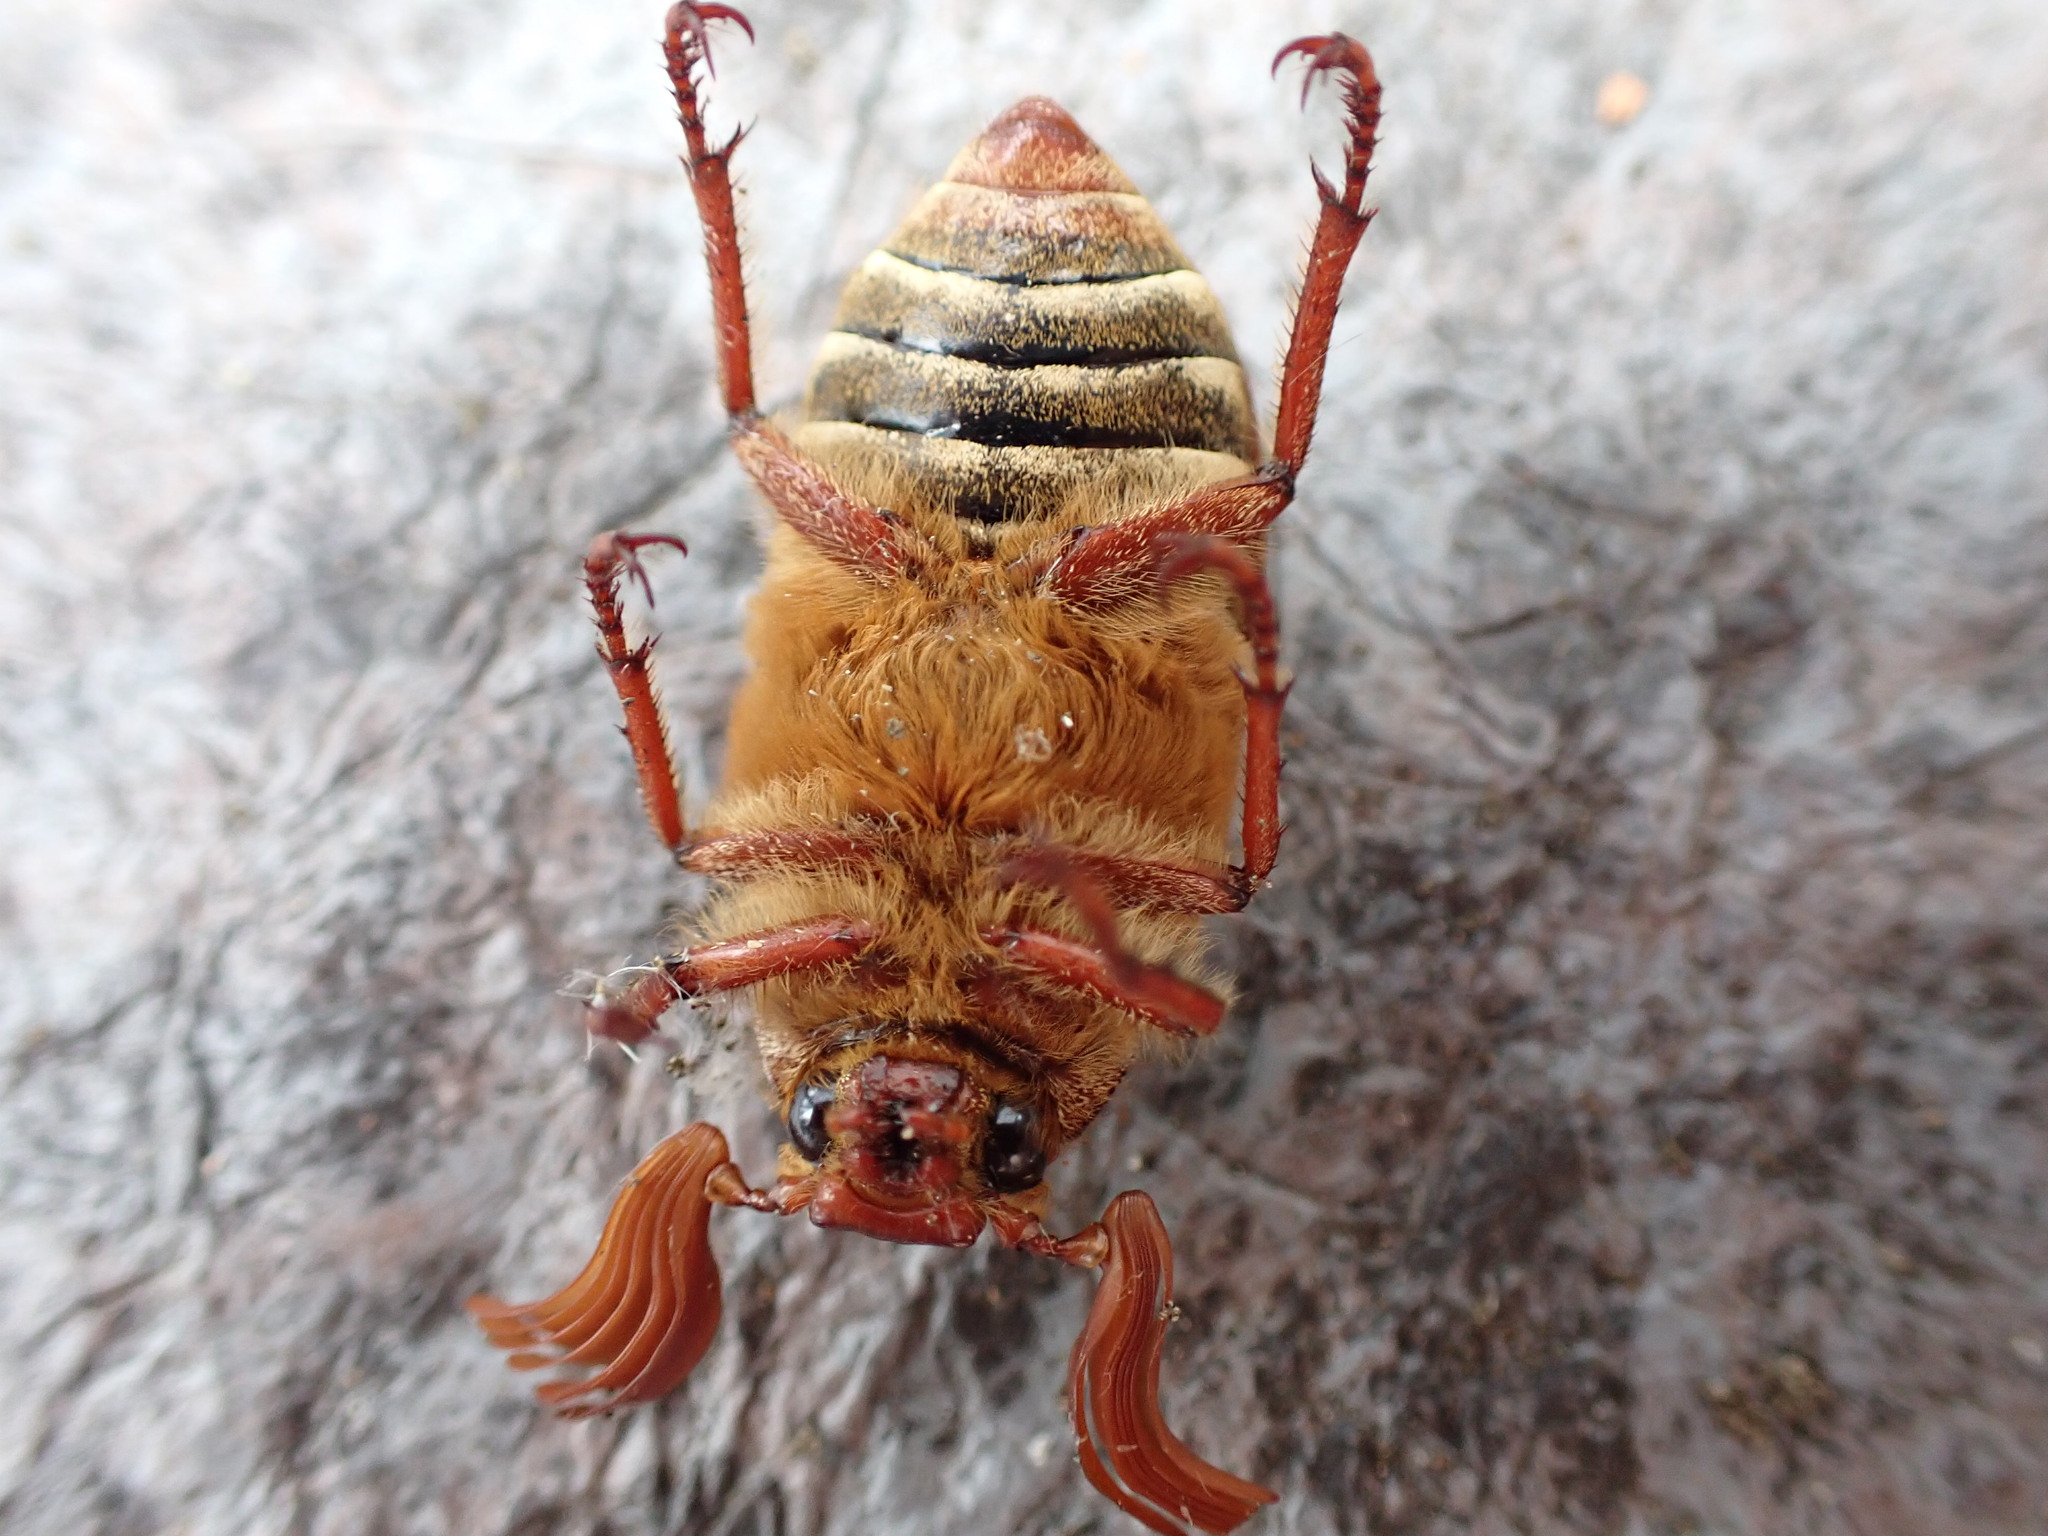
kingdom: Animalia
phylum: Arthropoda
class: Insecta
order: Coleoptera
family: Scarabaeidae
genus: Polyphylla
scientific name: Polyphylla crinita
